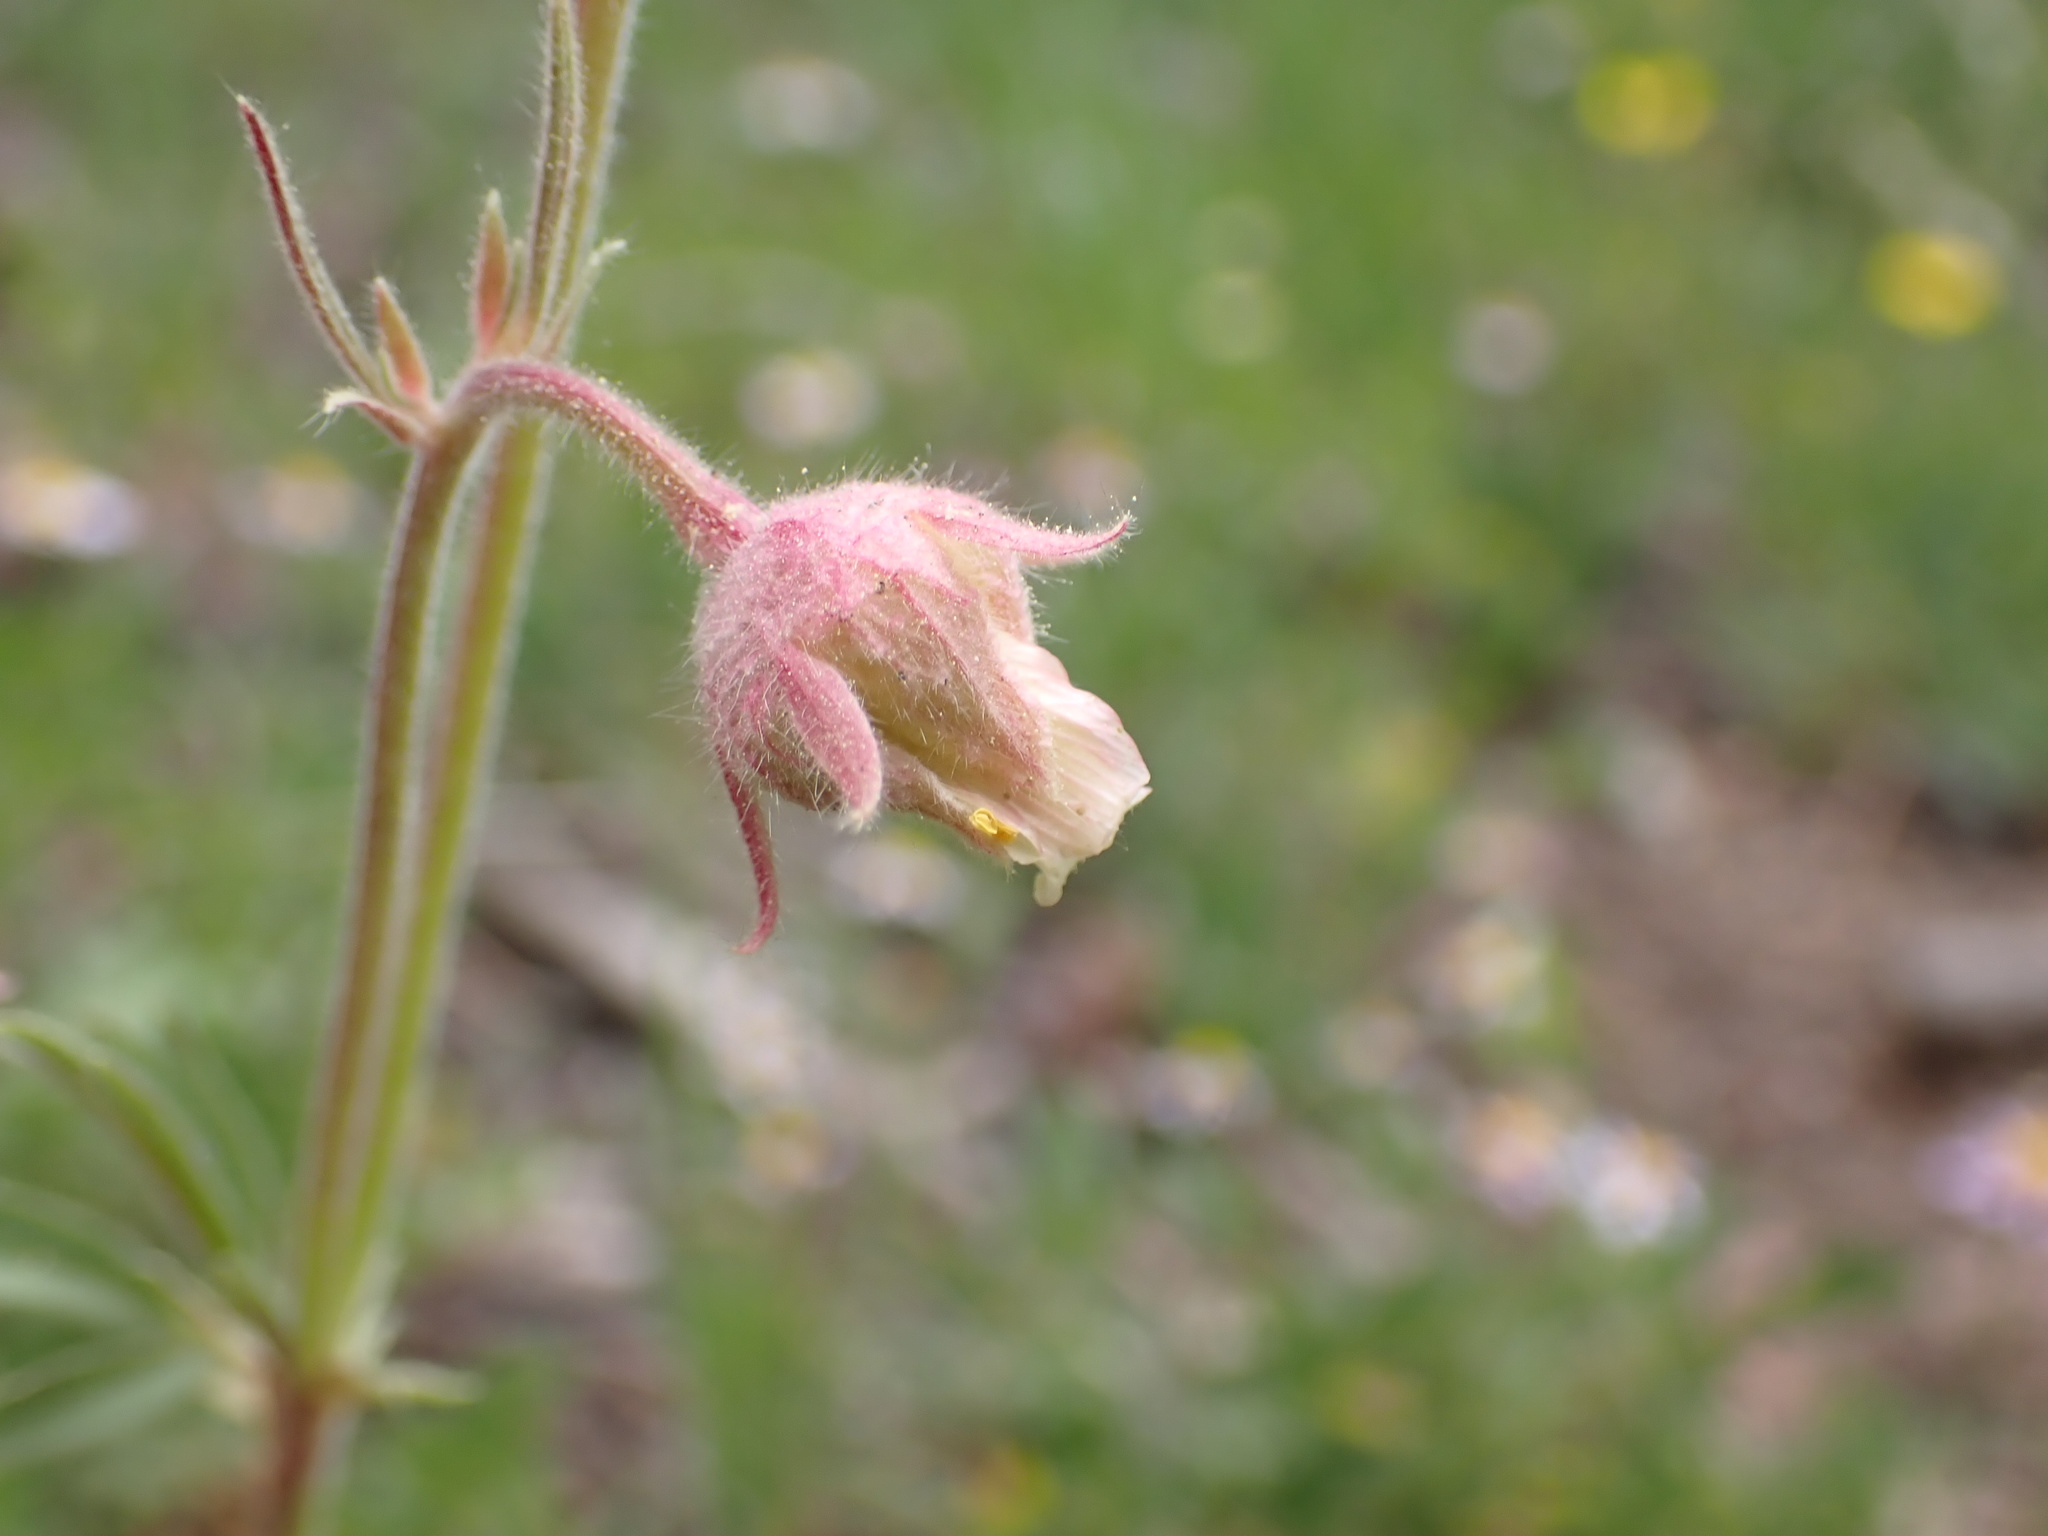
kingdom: Plantae
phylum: Tracheophyta
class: Magnoliopsida
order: Rosales
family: Rosaceae
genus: Geum
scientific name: Geum triflorum
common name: Old man's whiskers
